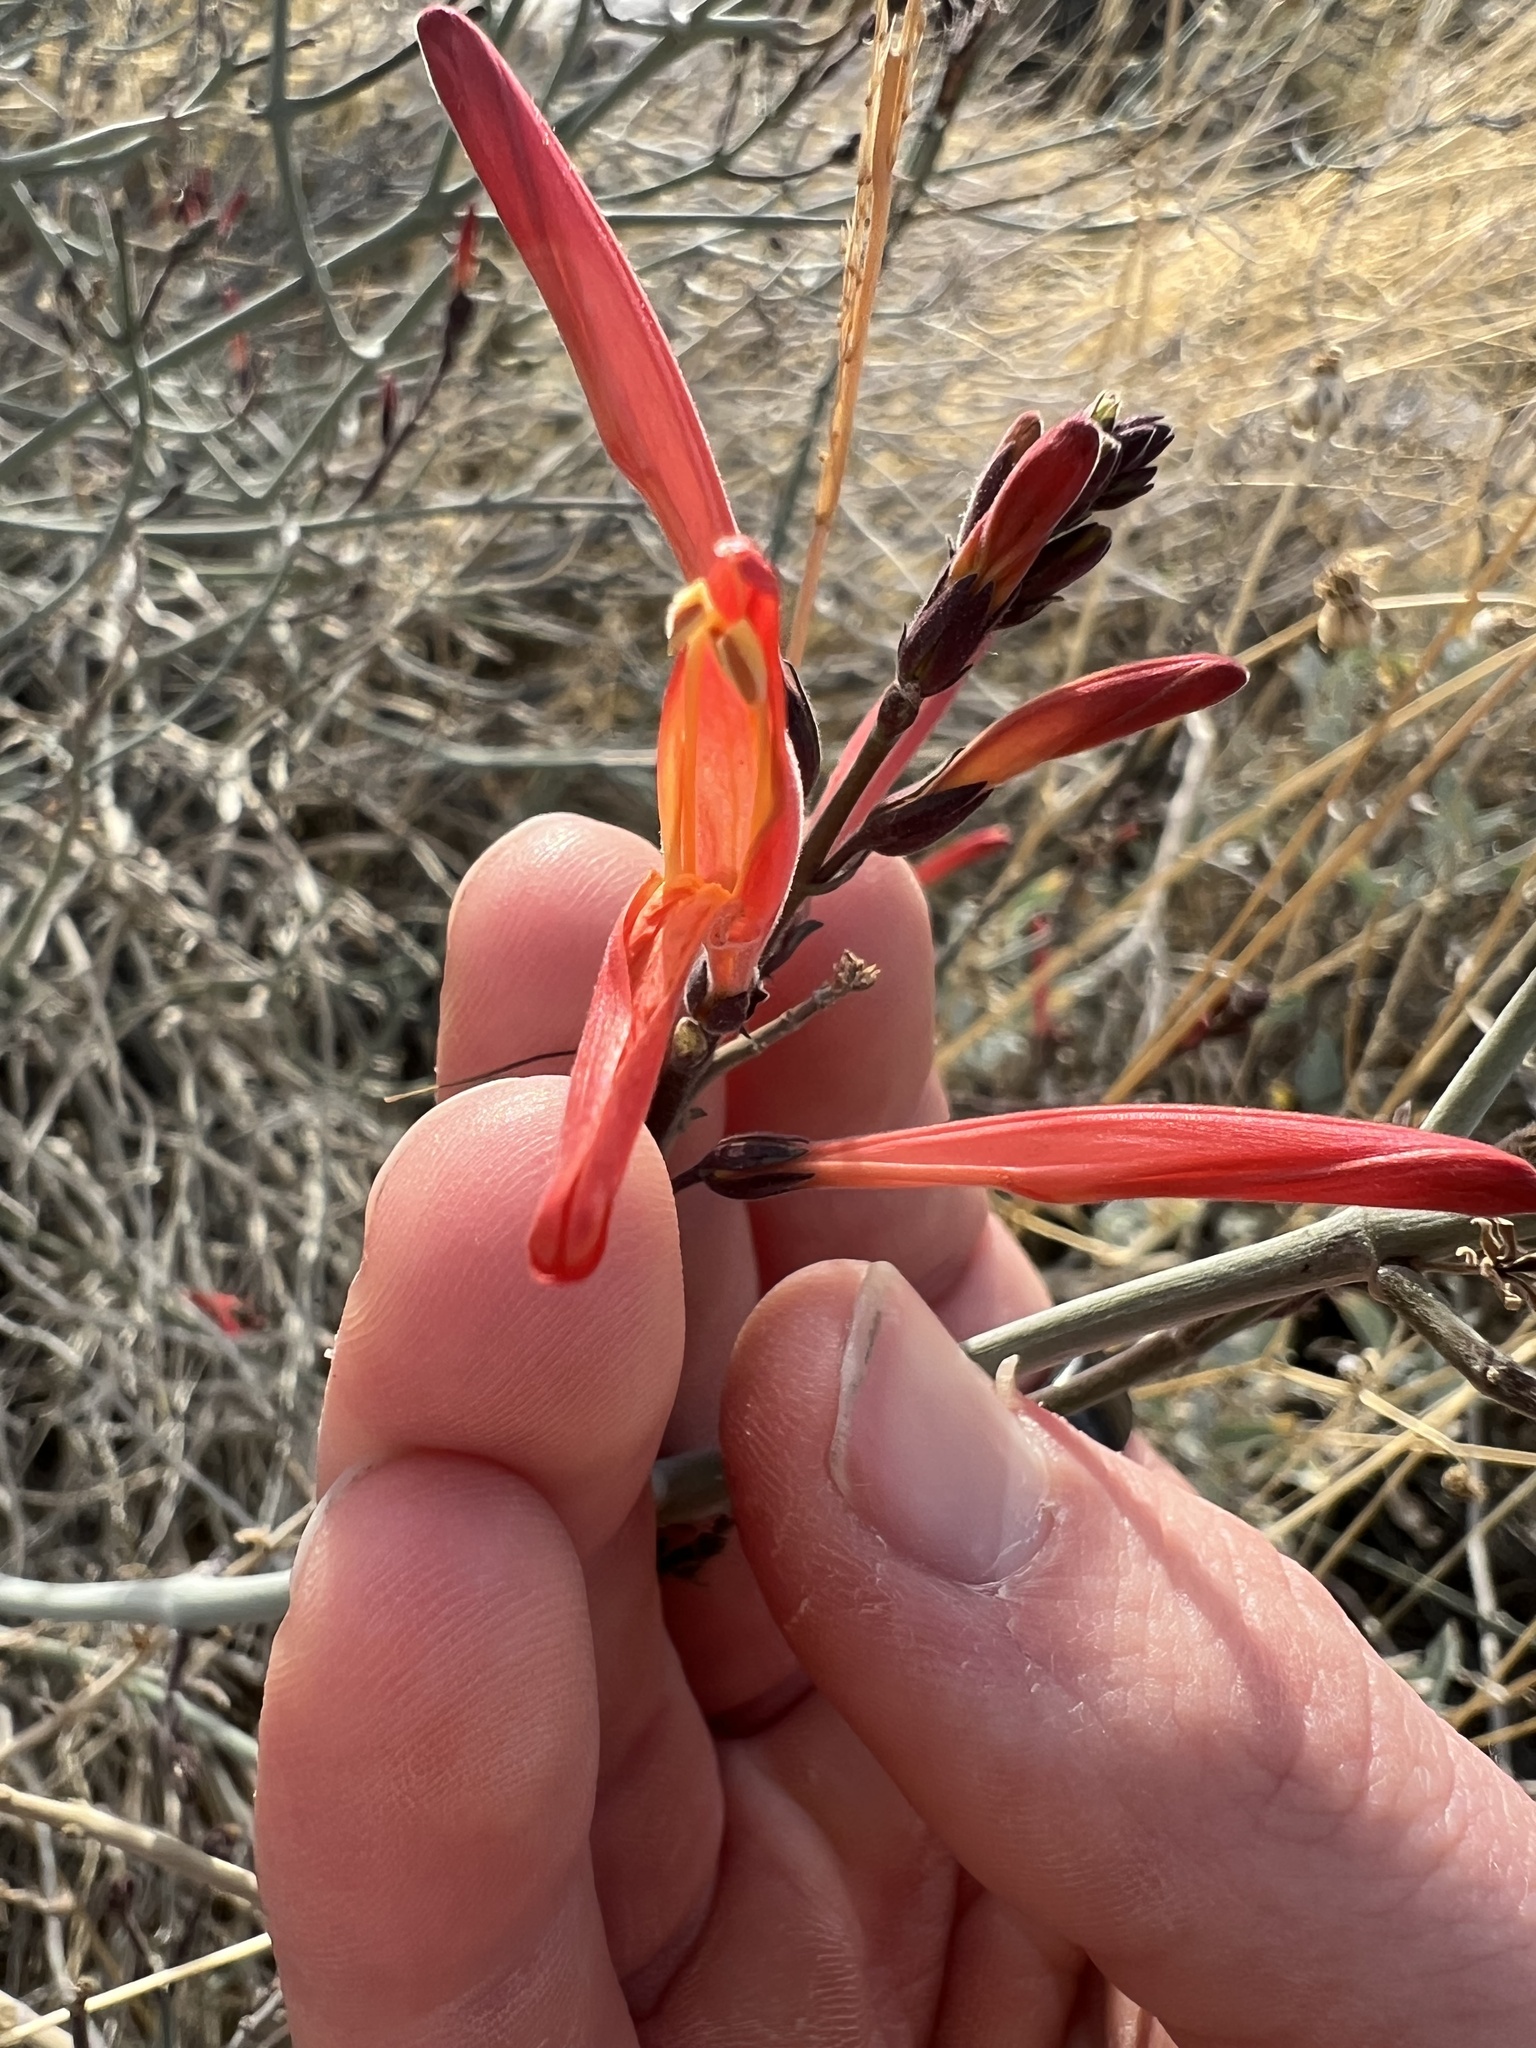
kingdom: Plantae
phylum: Tracheophyta
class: Magnoliopsida
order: Lamiales
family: Acanthaceae
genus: Justicia
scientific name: Justicia californica
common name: Chuparosa-honeysuckle
